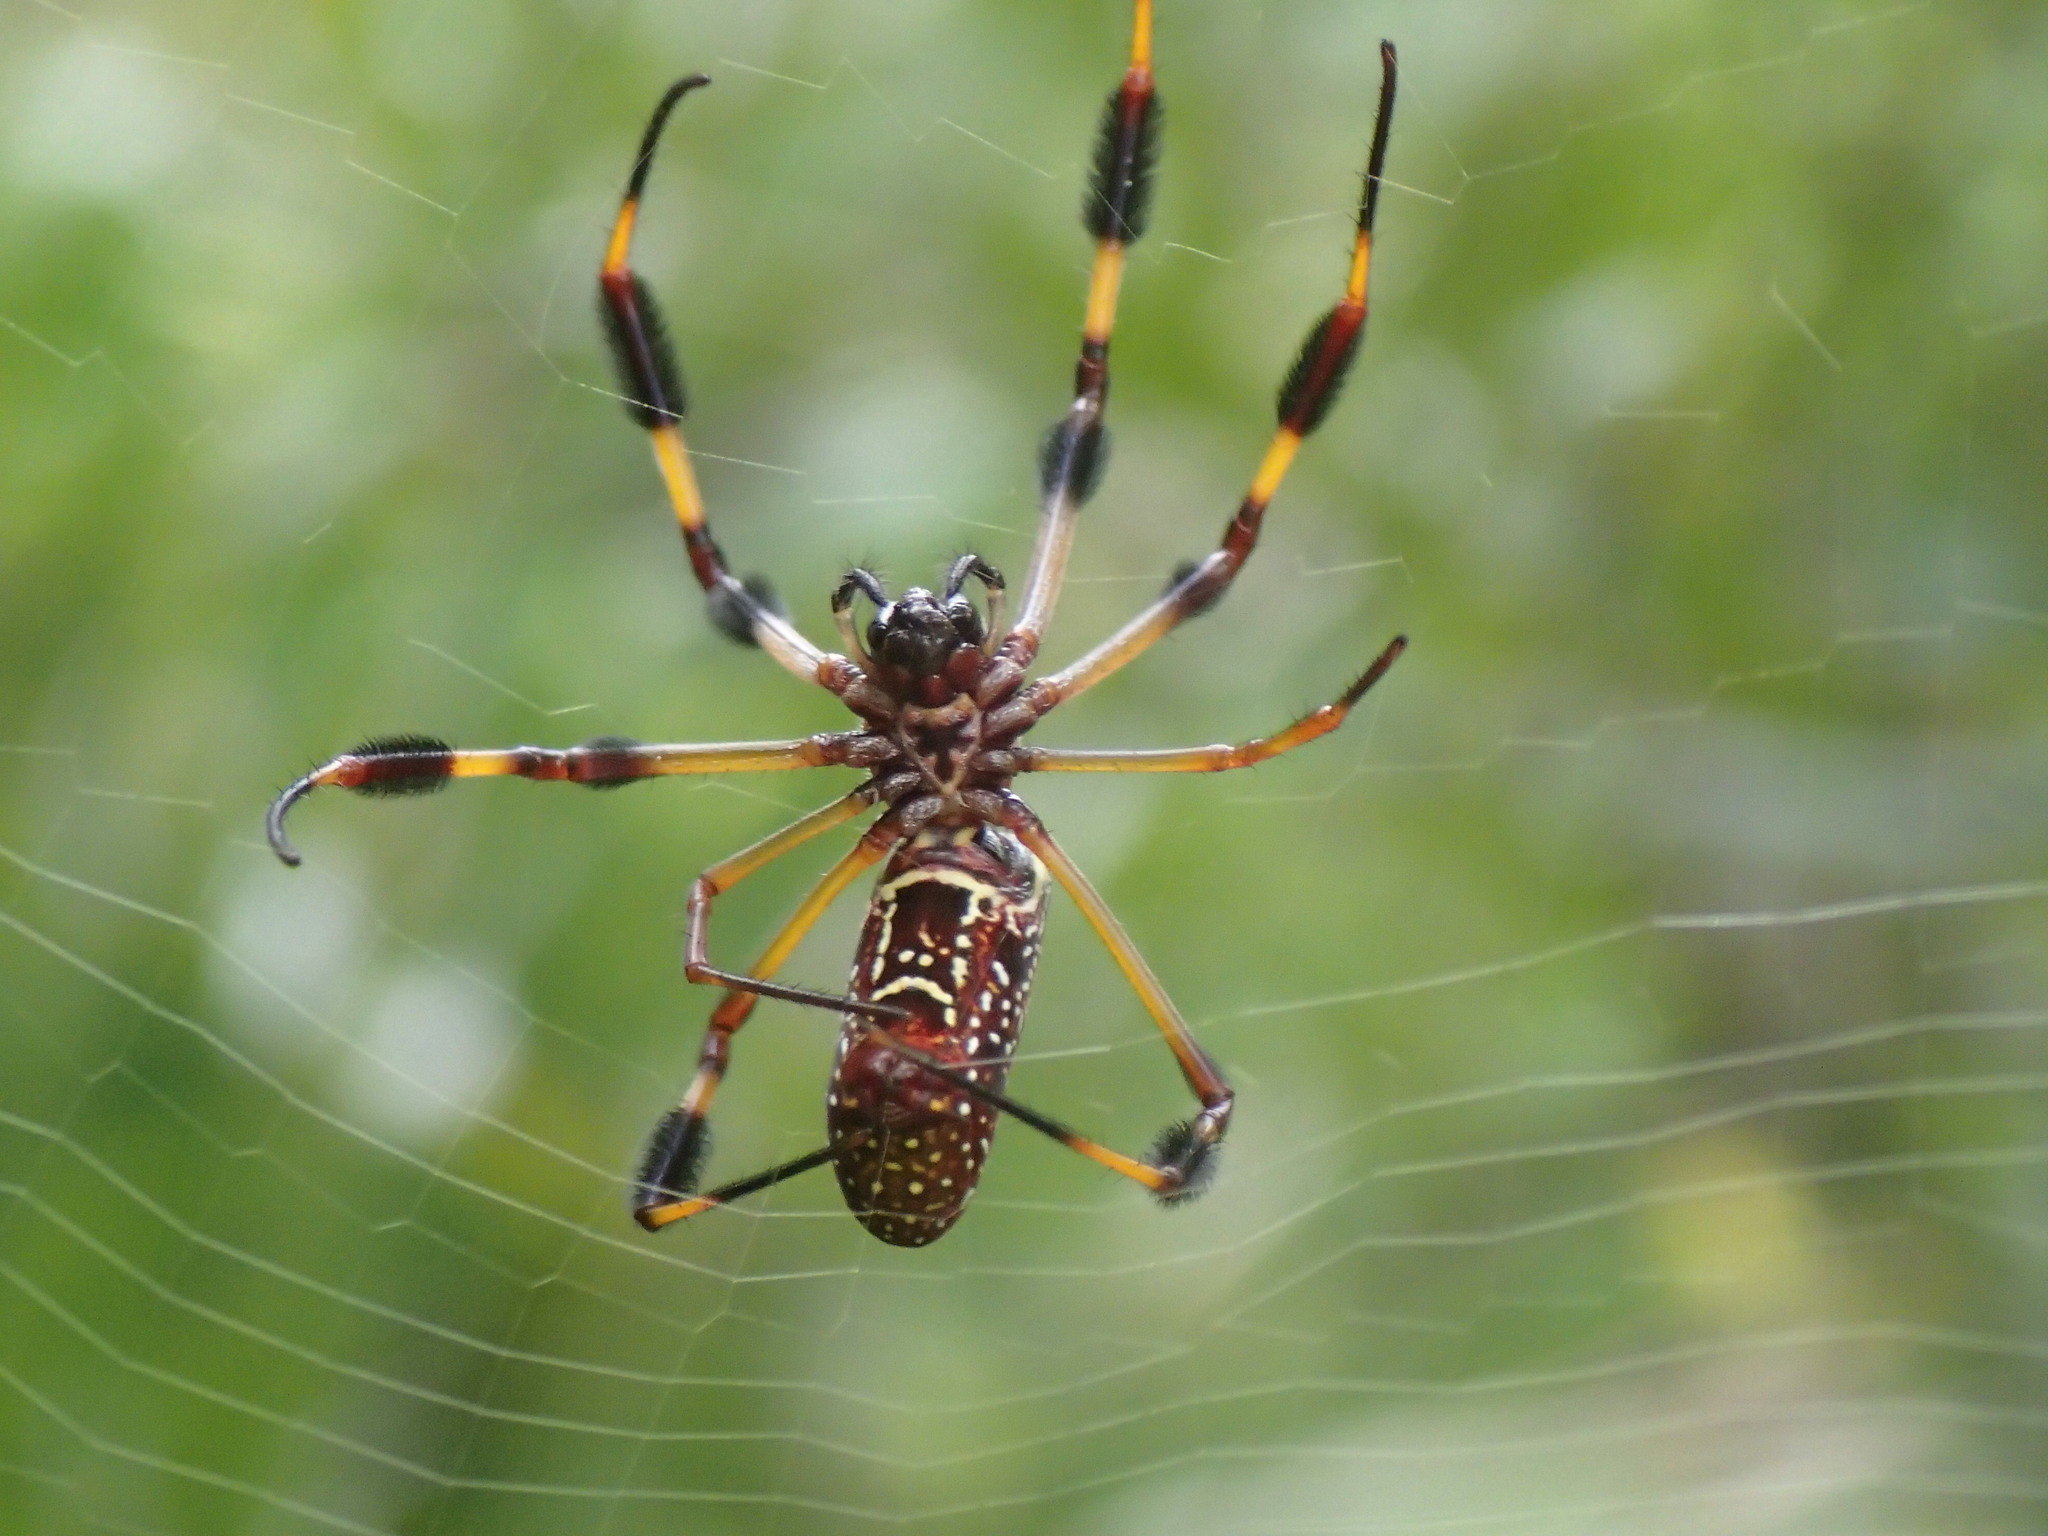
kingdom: Animalia
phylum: Arthropoda
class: Arachnida
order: Araneae
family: Araneidae
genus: Trichonephila
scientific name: Trichonephila clavipes
